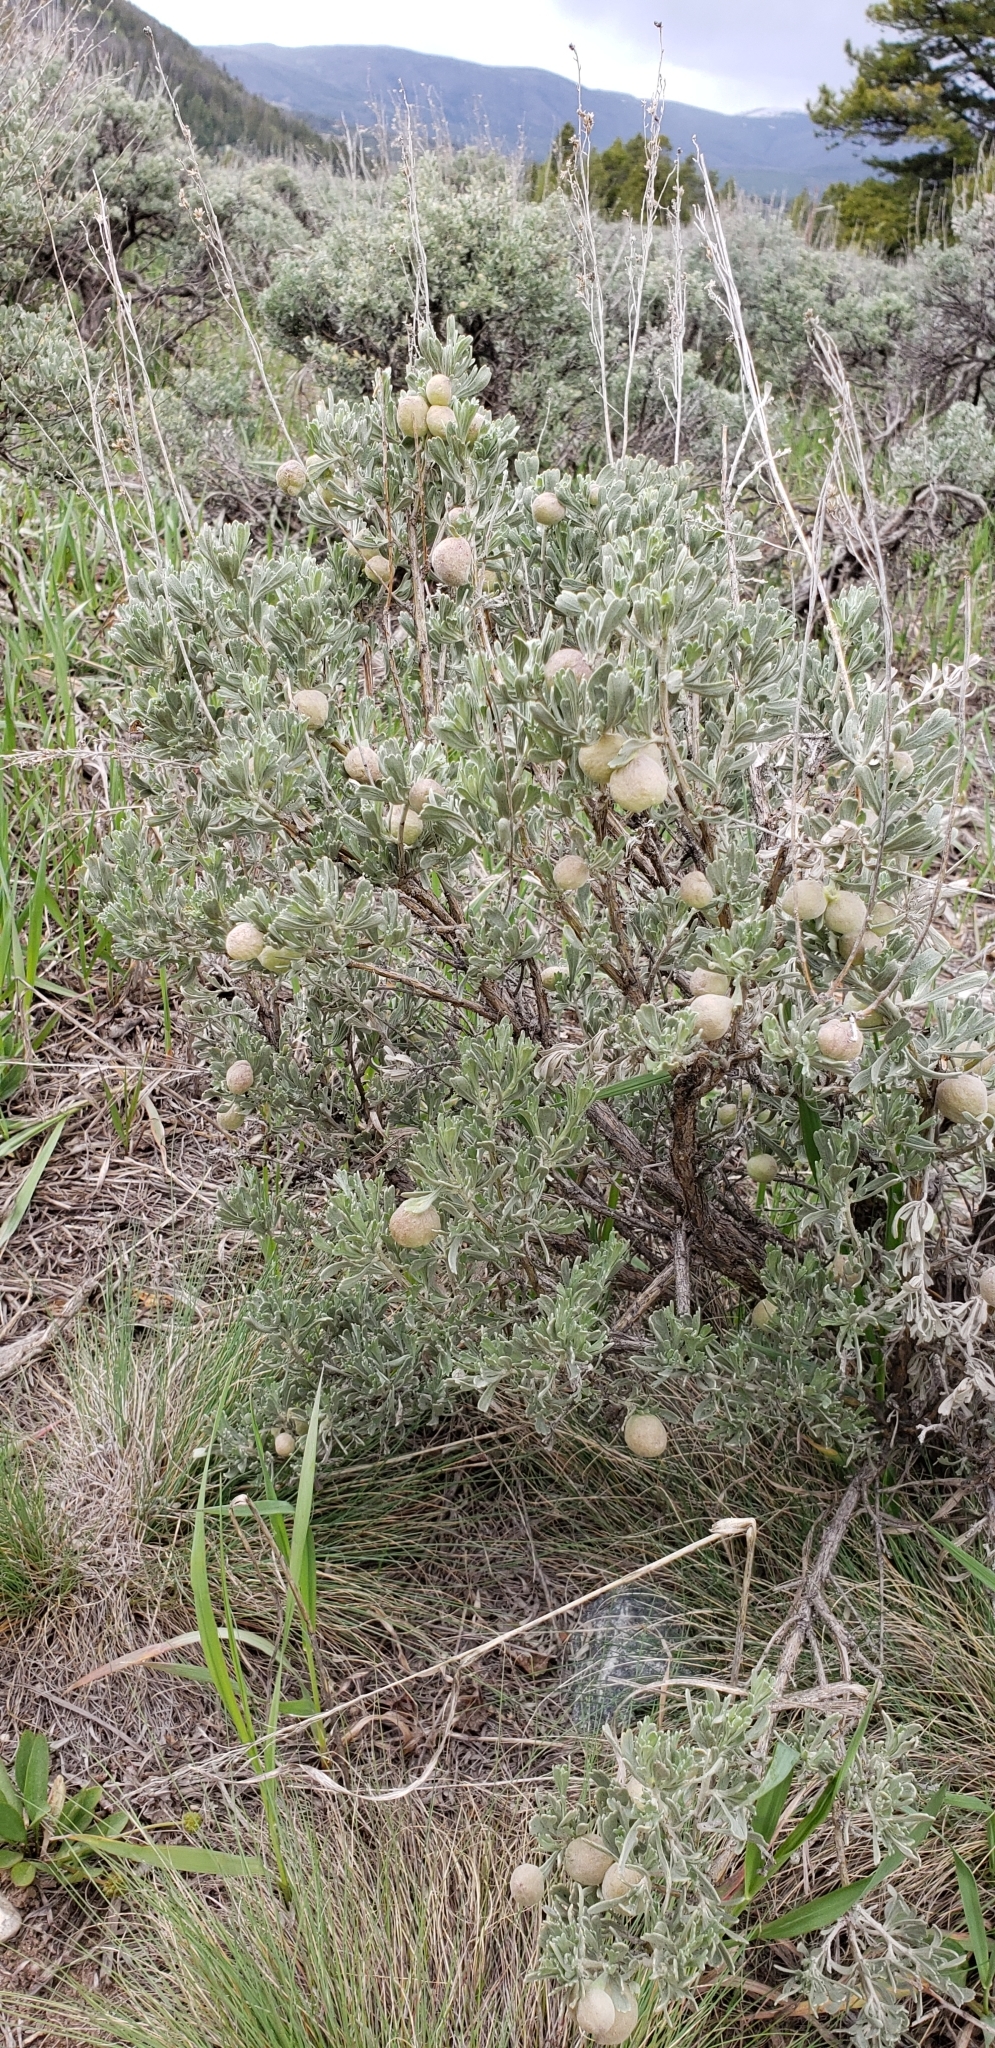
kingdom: Plantae
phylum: Tracheophyta
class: Magnoliopsida
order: Asterales
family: Asteraceae
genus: Artemisia
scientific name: Artemisia tridentata
